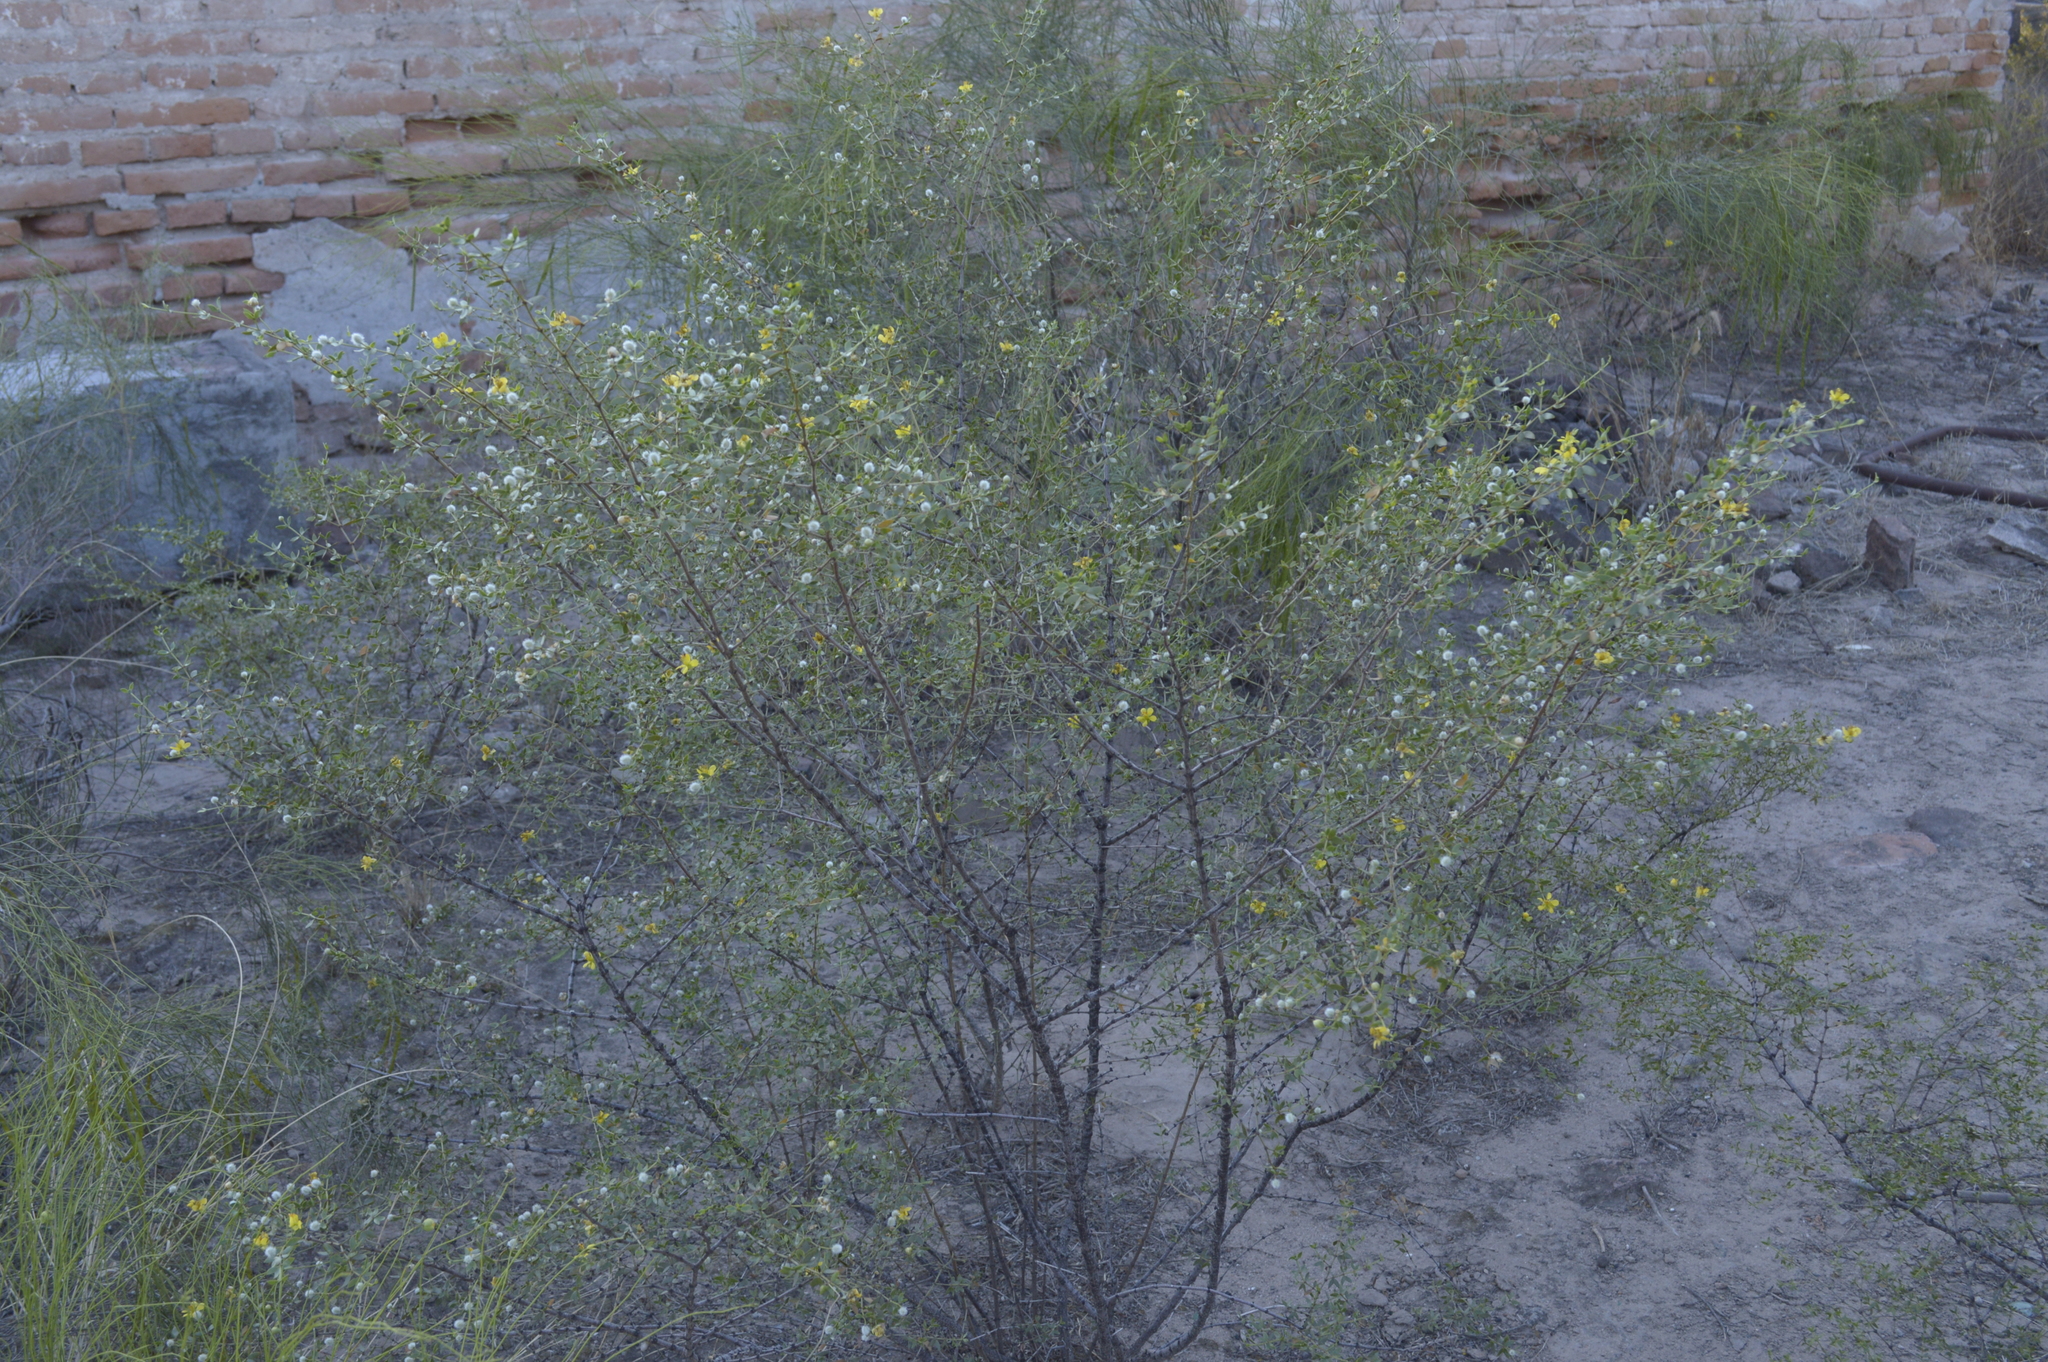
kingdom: Plantae
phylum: Tracheophyta
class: Magnoliopsida
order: Zygophyllales
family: Zygophyllaceae
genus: Larrea
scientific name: Larrea divaricata
